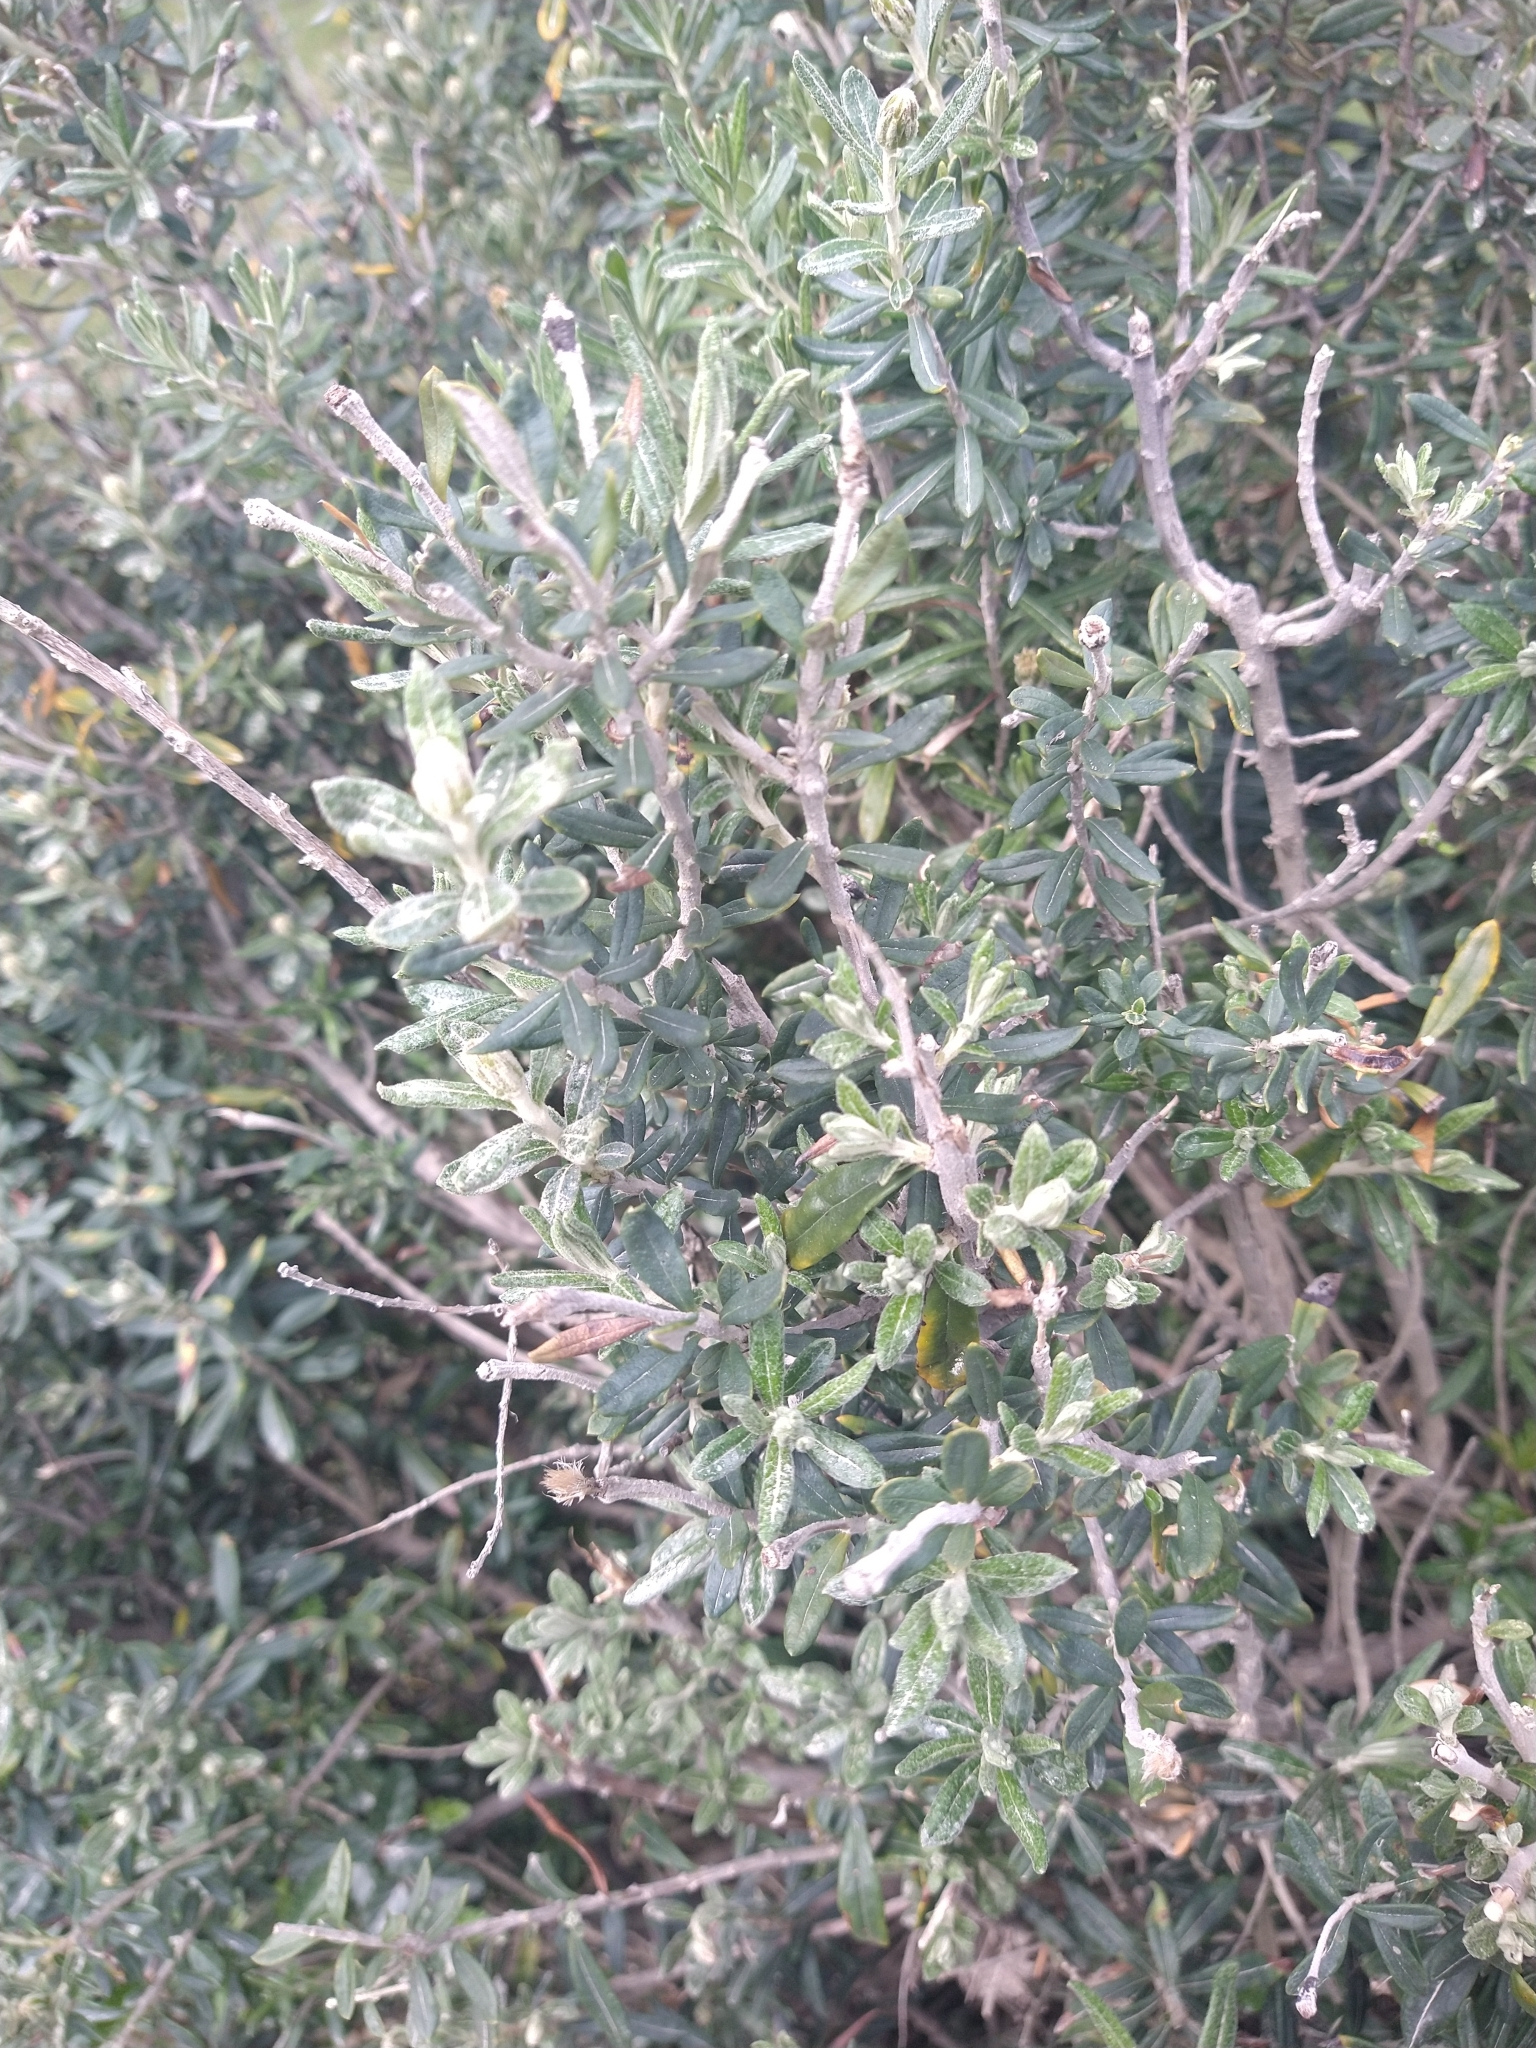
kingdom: Plantae
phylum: Tracheophyta
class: Magnoliopsida
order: Asterales
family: Asteraceae
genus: Chiliotrichum
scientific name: Chiliotrichum diffusum
